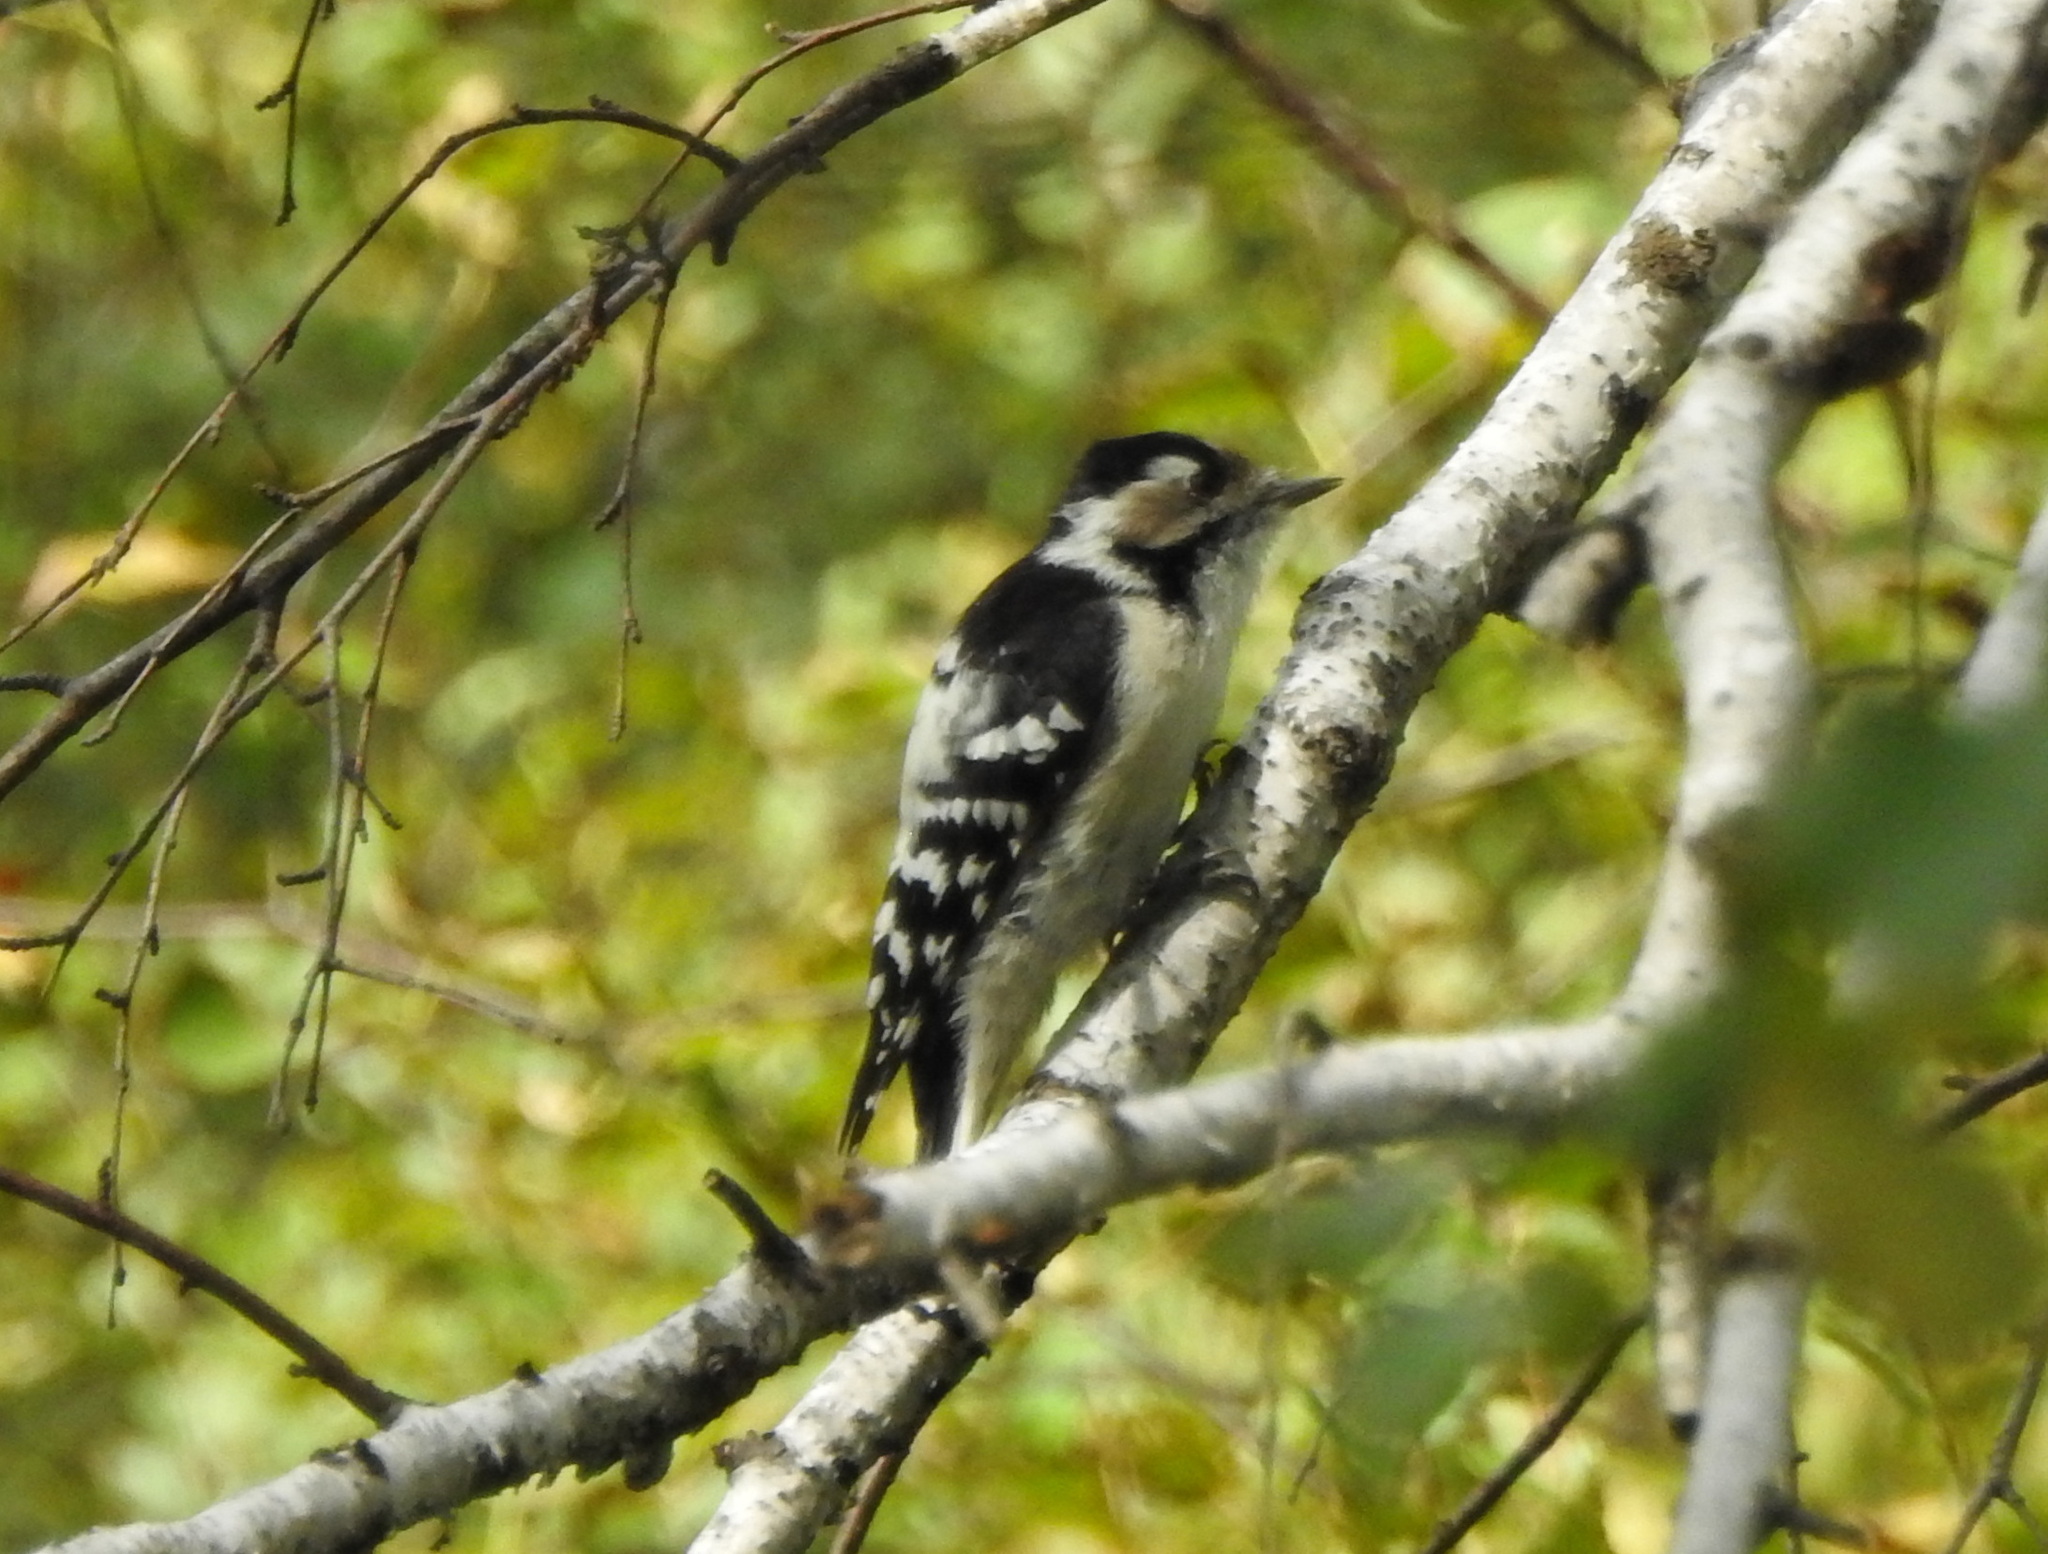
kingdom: Animalia
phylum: Chordata
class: Aves
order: Piciformes
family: Picidae
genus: Dryobates
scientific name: Dryobates minor
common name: Lesser spotted woodpecker
